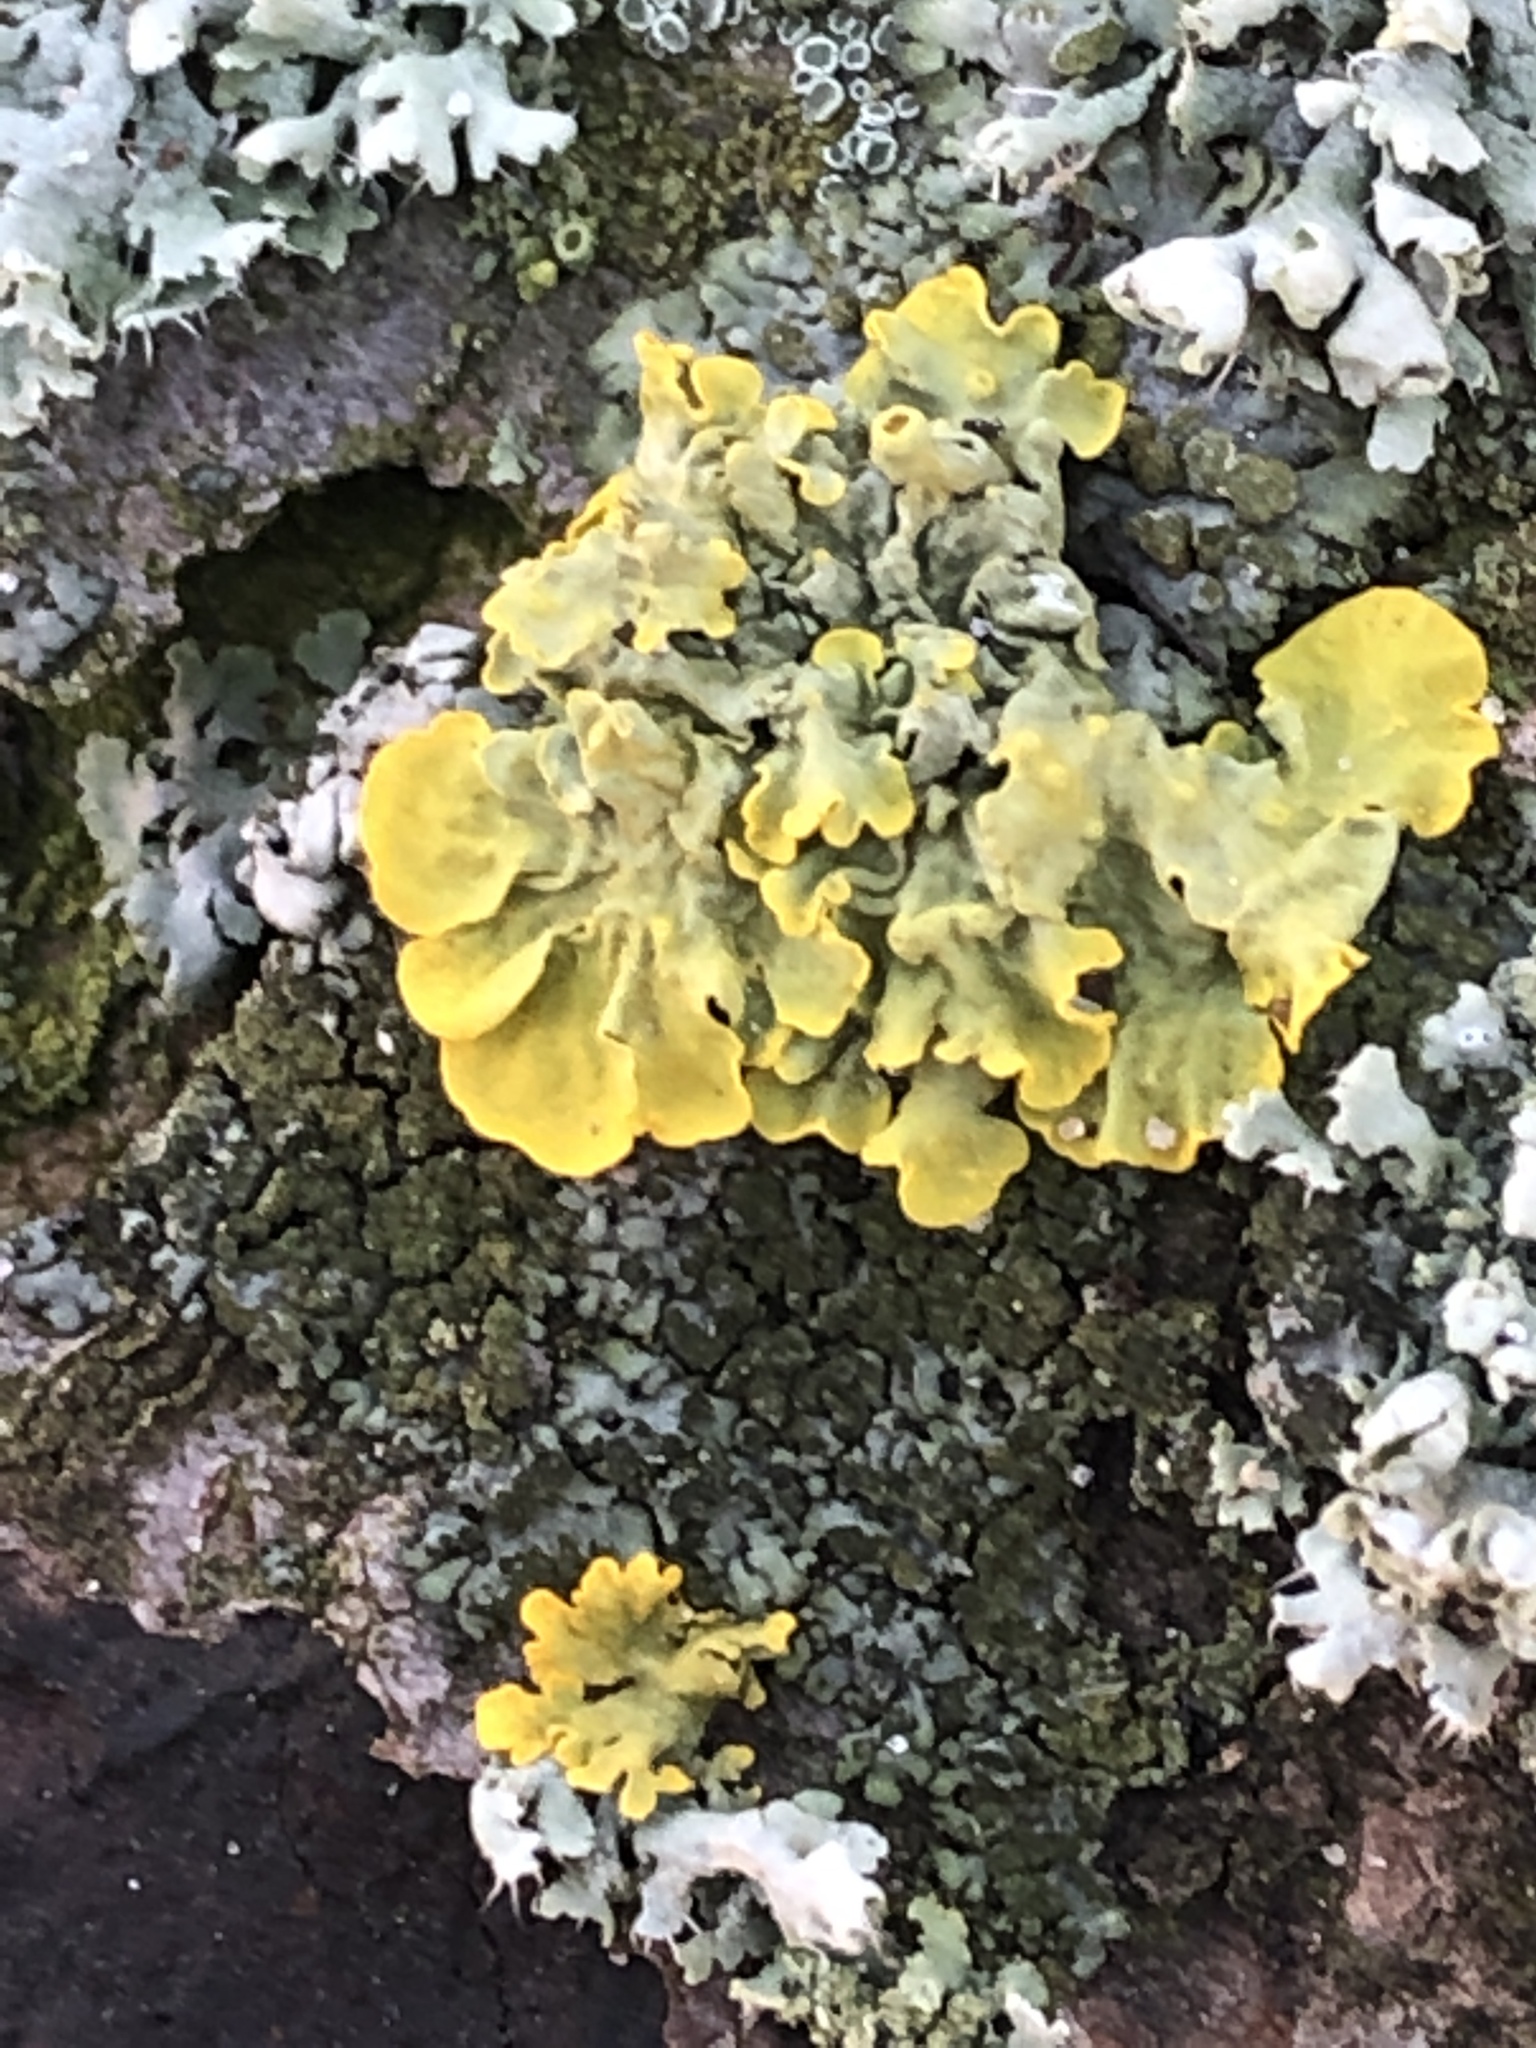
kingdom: Fungi
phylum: Ascomycota
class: Lecanoromycetes
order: Teloschistales
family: Teloschistaceae
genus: Xanthoria
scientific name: Xanthoria parietina
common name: Common orange lichen
